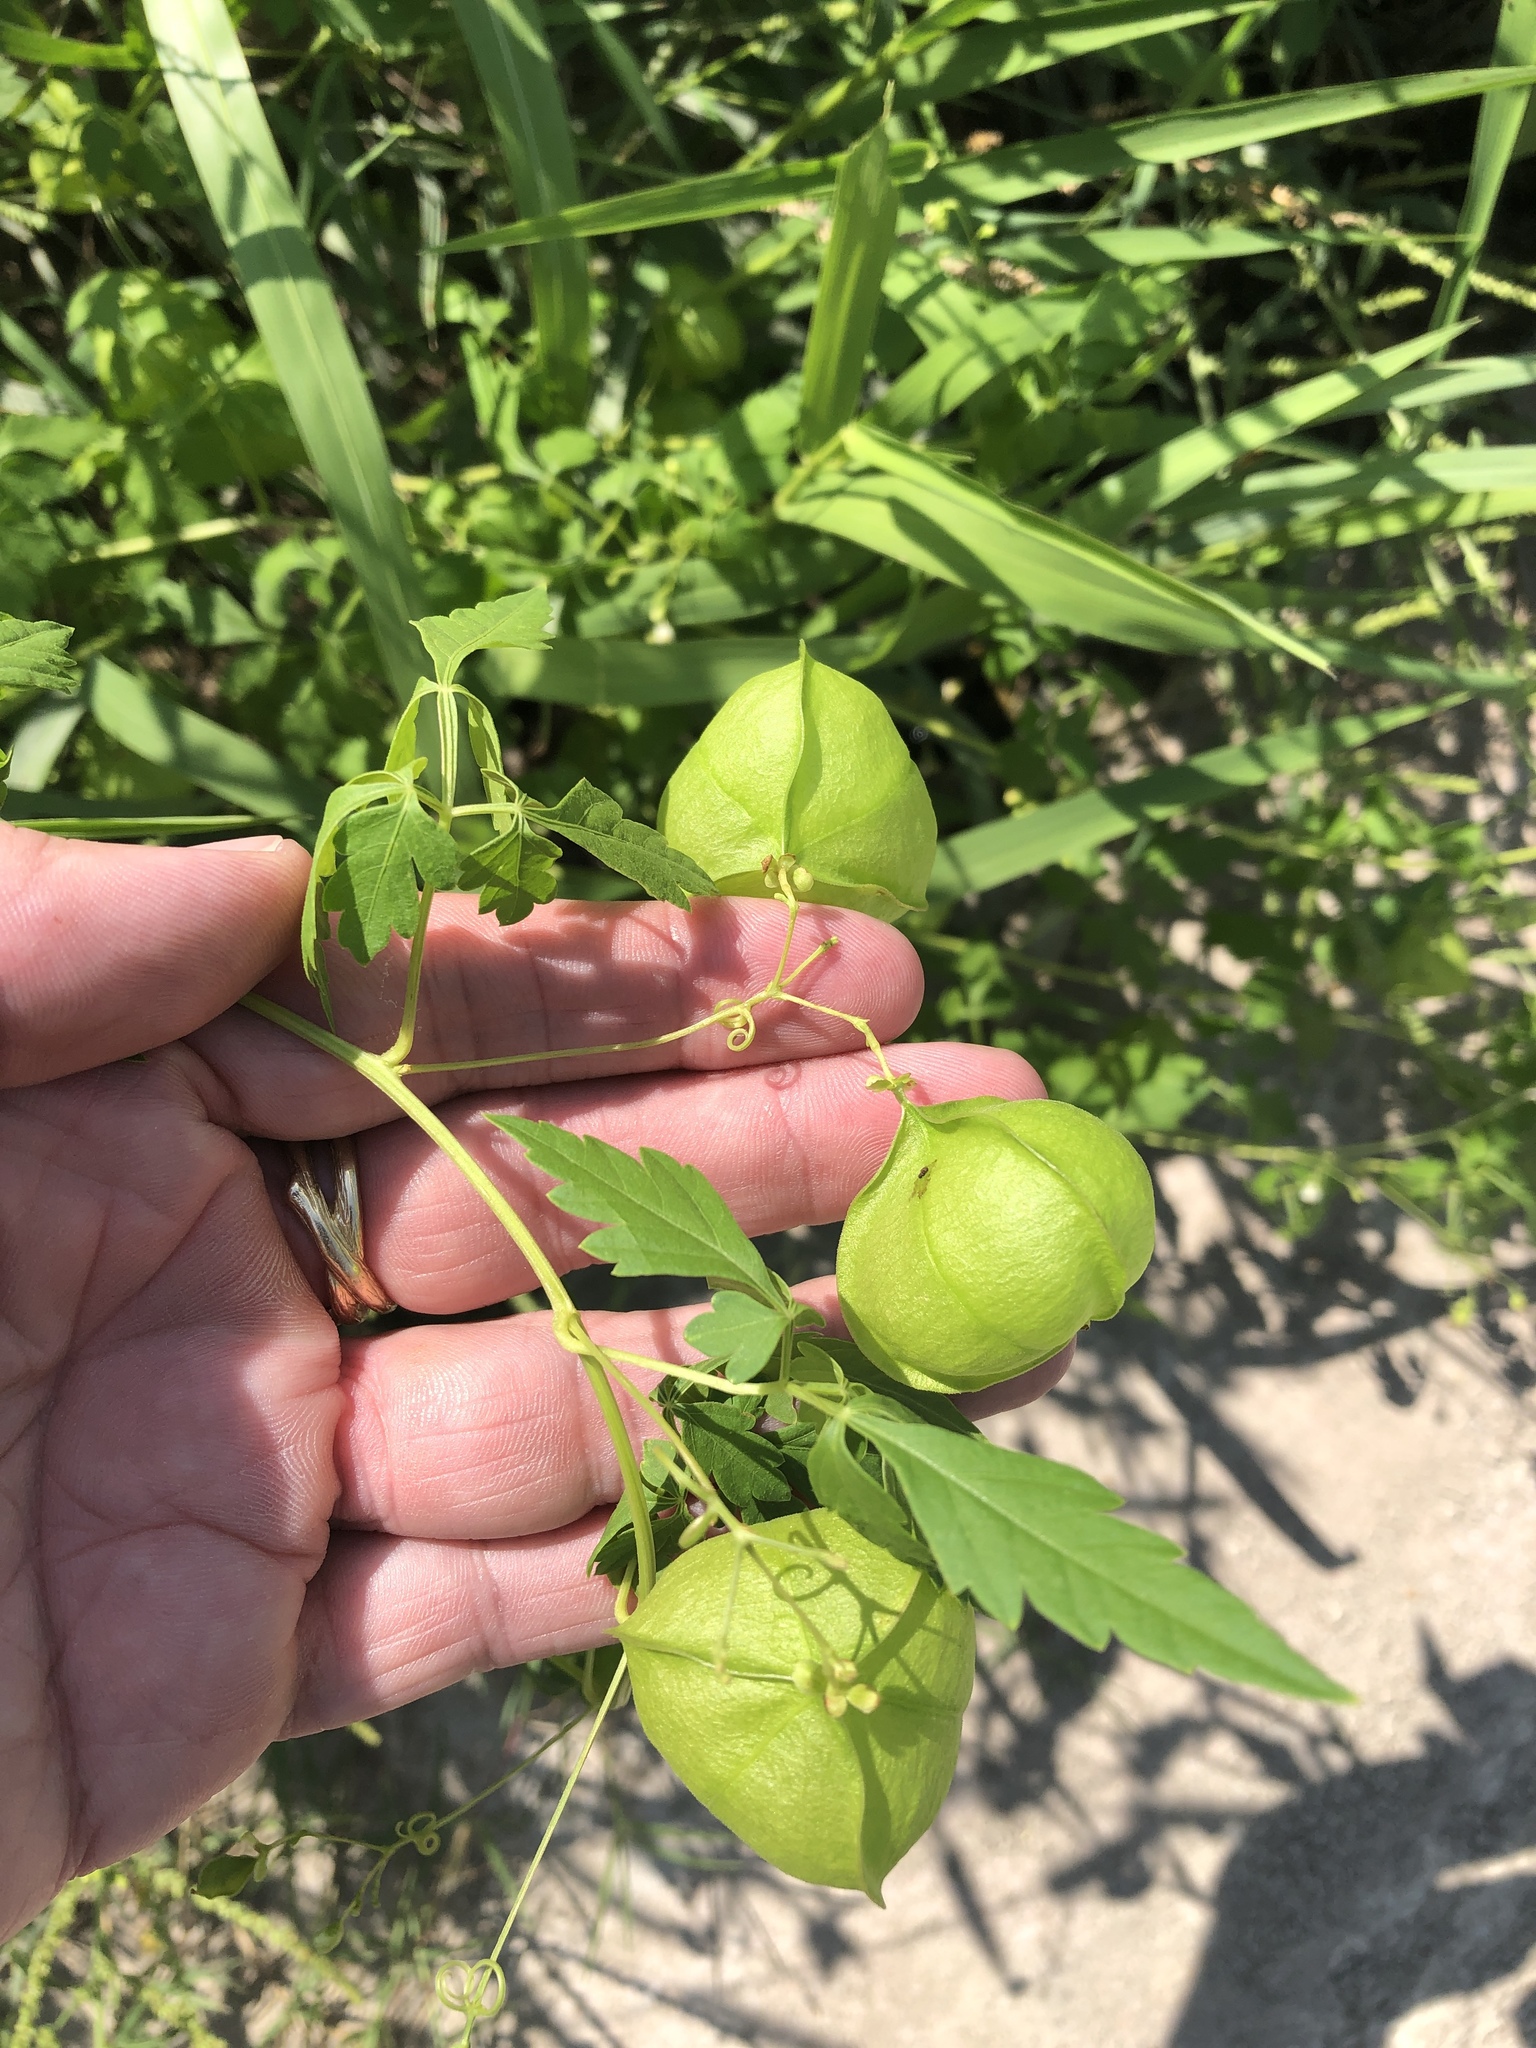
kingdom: Plantae
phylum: Tracheophyta
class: Magnoliopsida
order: Sapindales
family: Sapindaceae
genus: Cardiospermum
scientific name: Cardiospermum halicacabum
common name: Balloon vine
